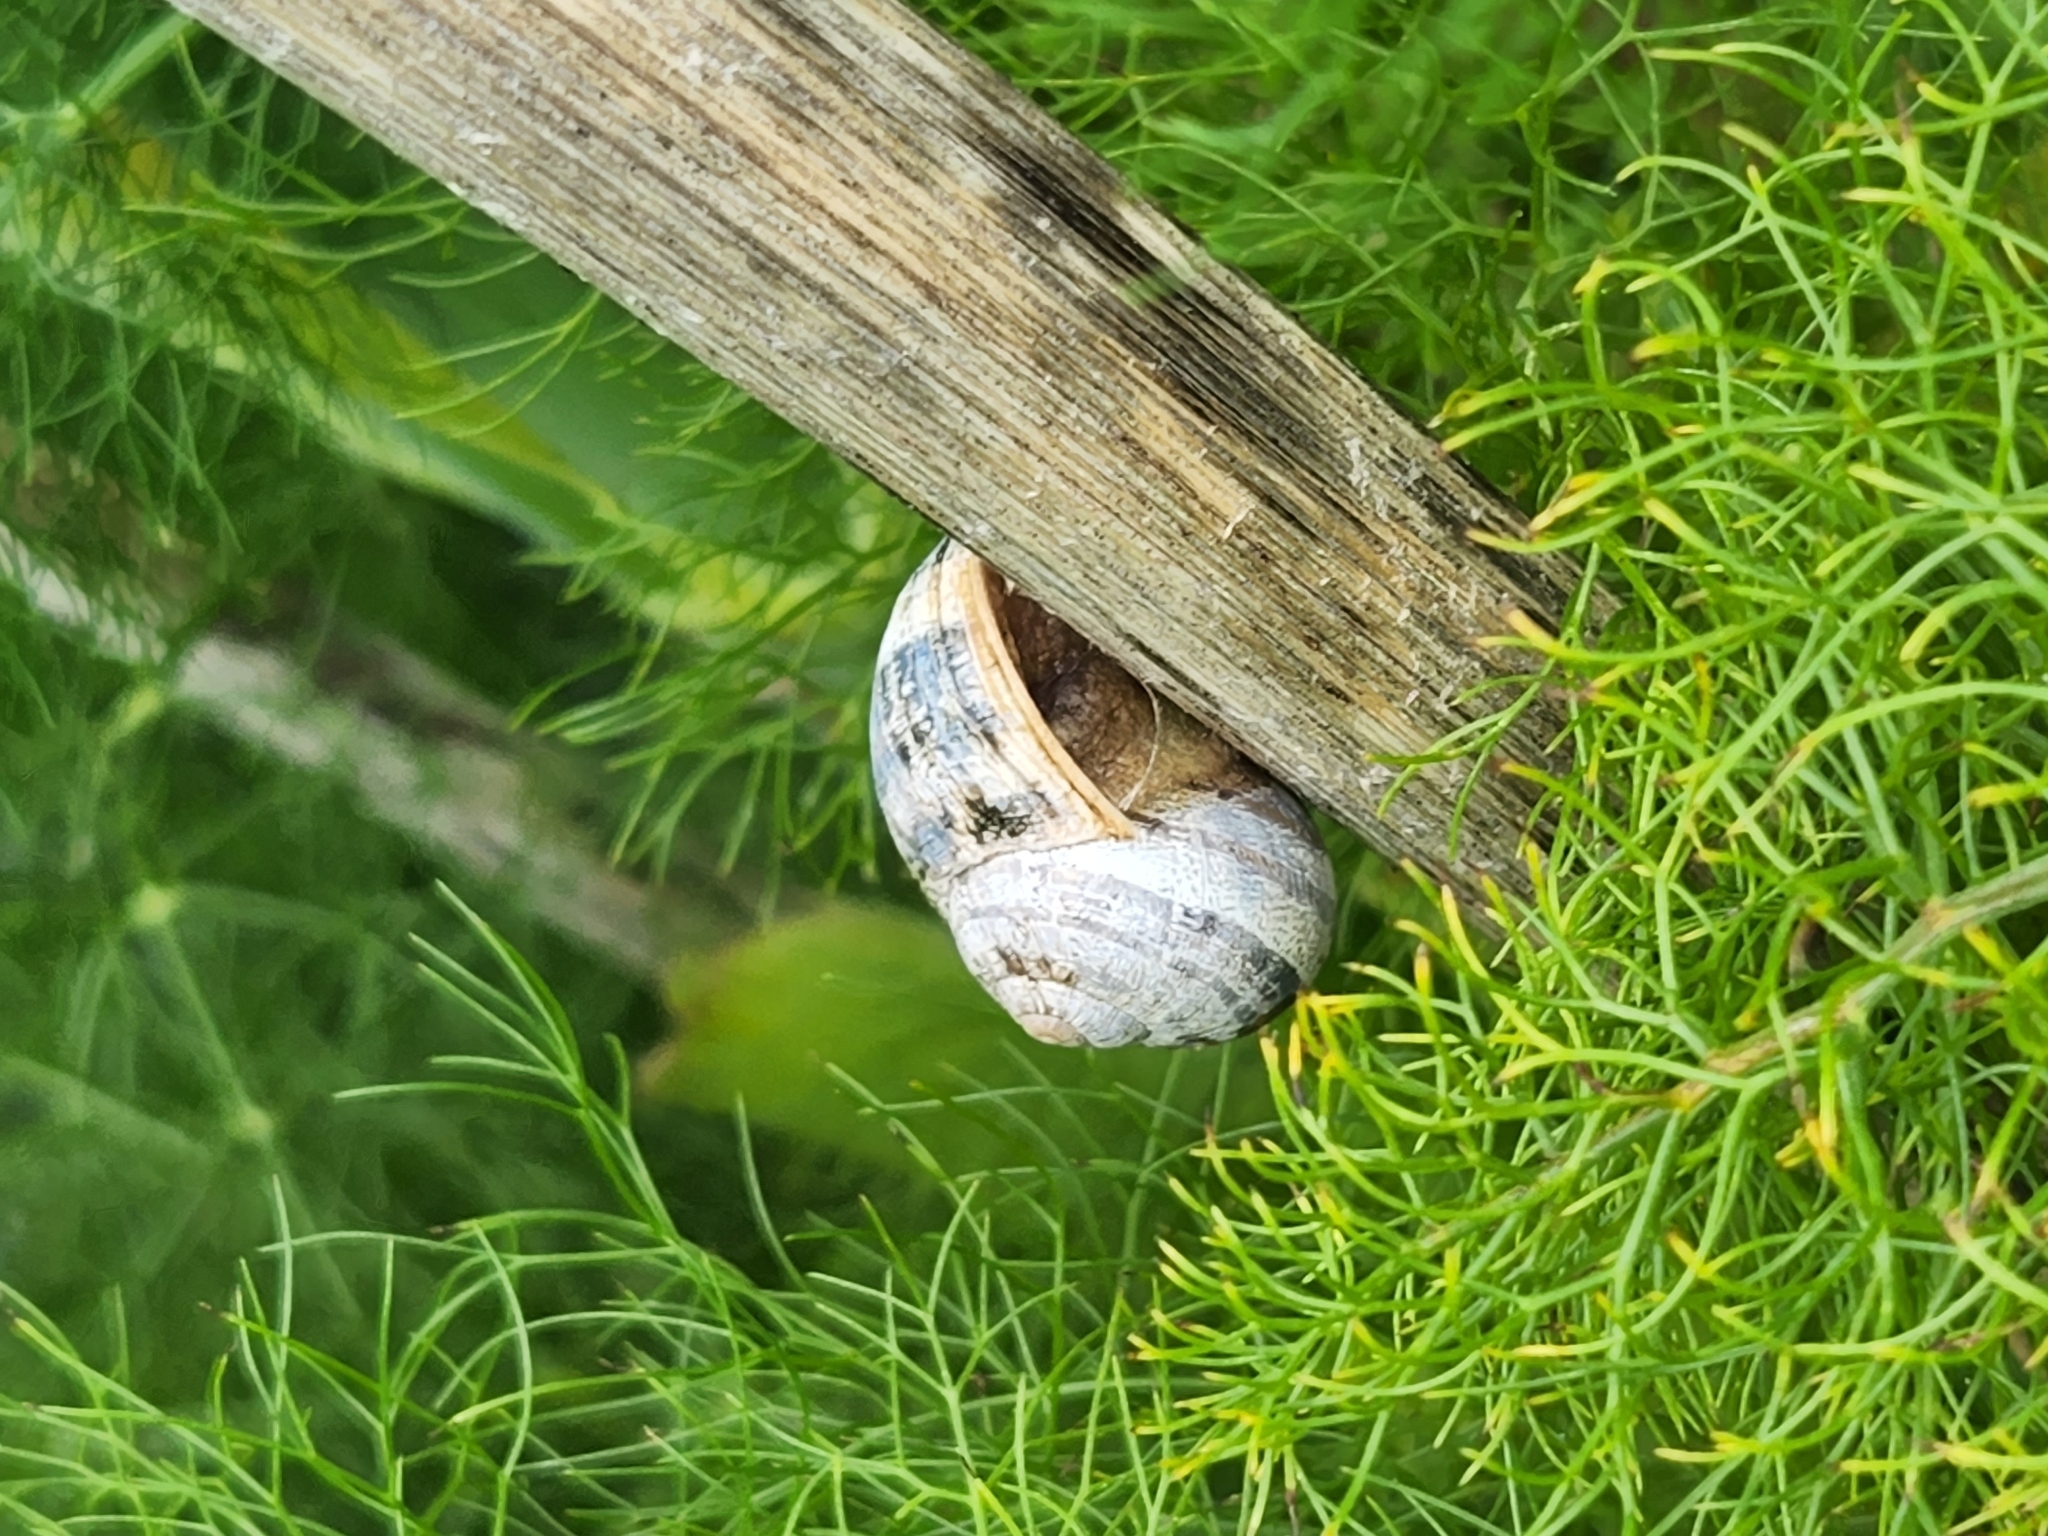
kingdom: Animalia
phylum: Mollusca
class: Gastropoda
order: Stylommatophora
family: Helicidae
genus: Cornu
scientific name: Cornu aspersum
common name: Brown garden snail
